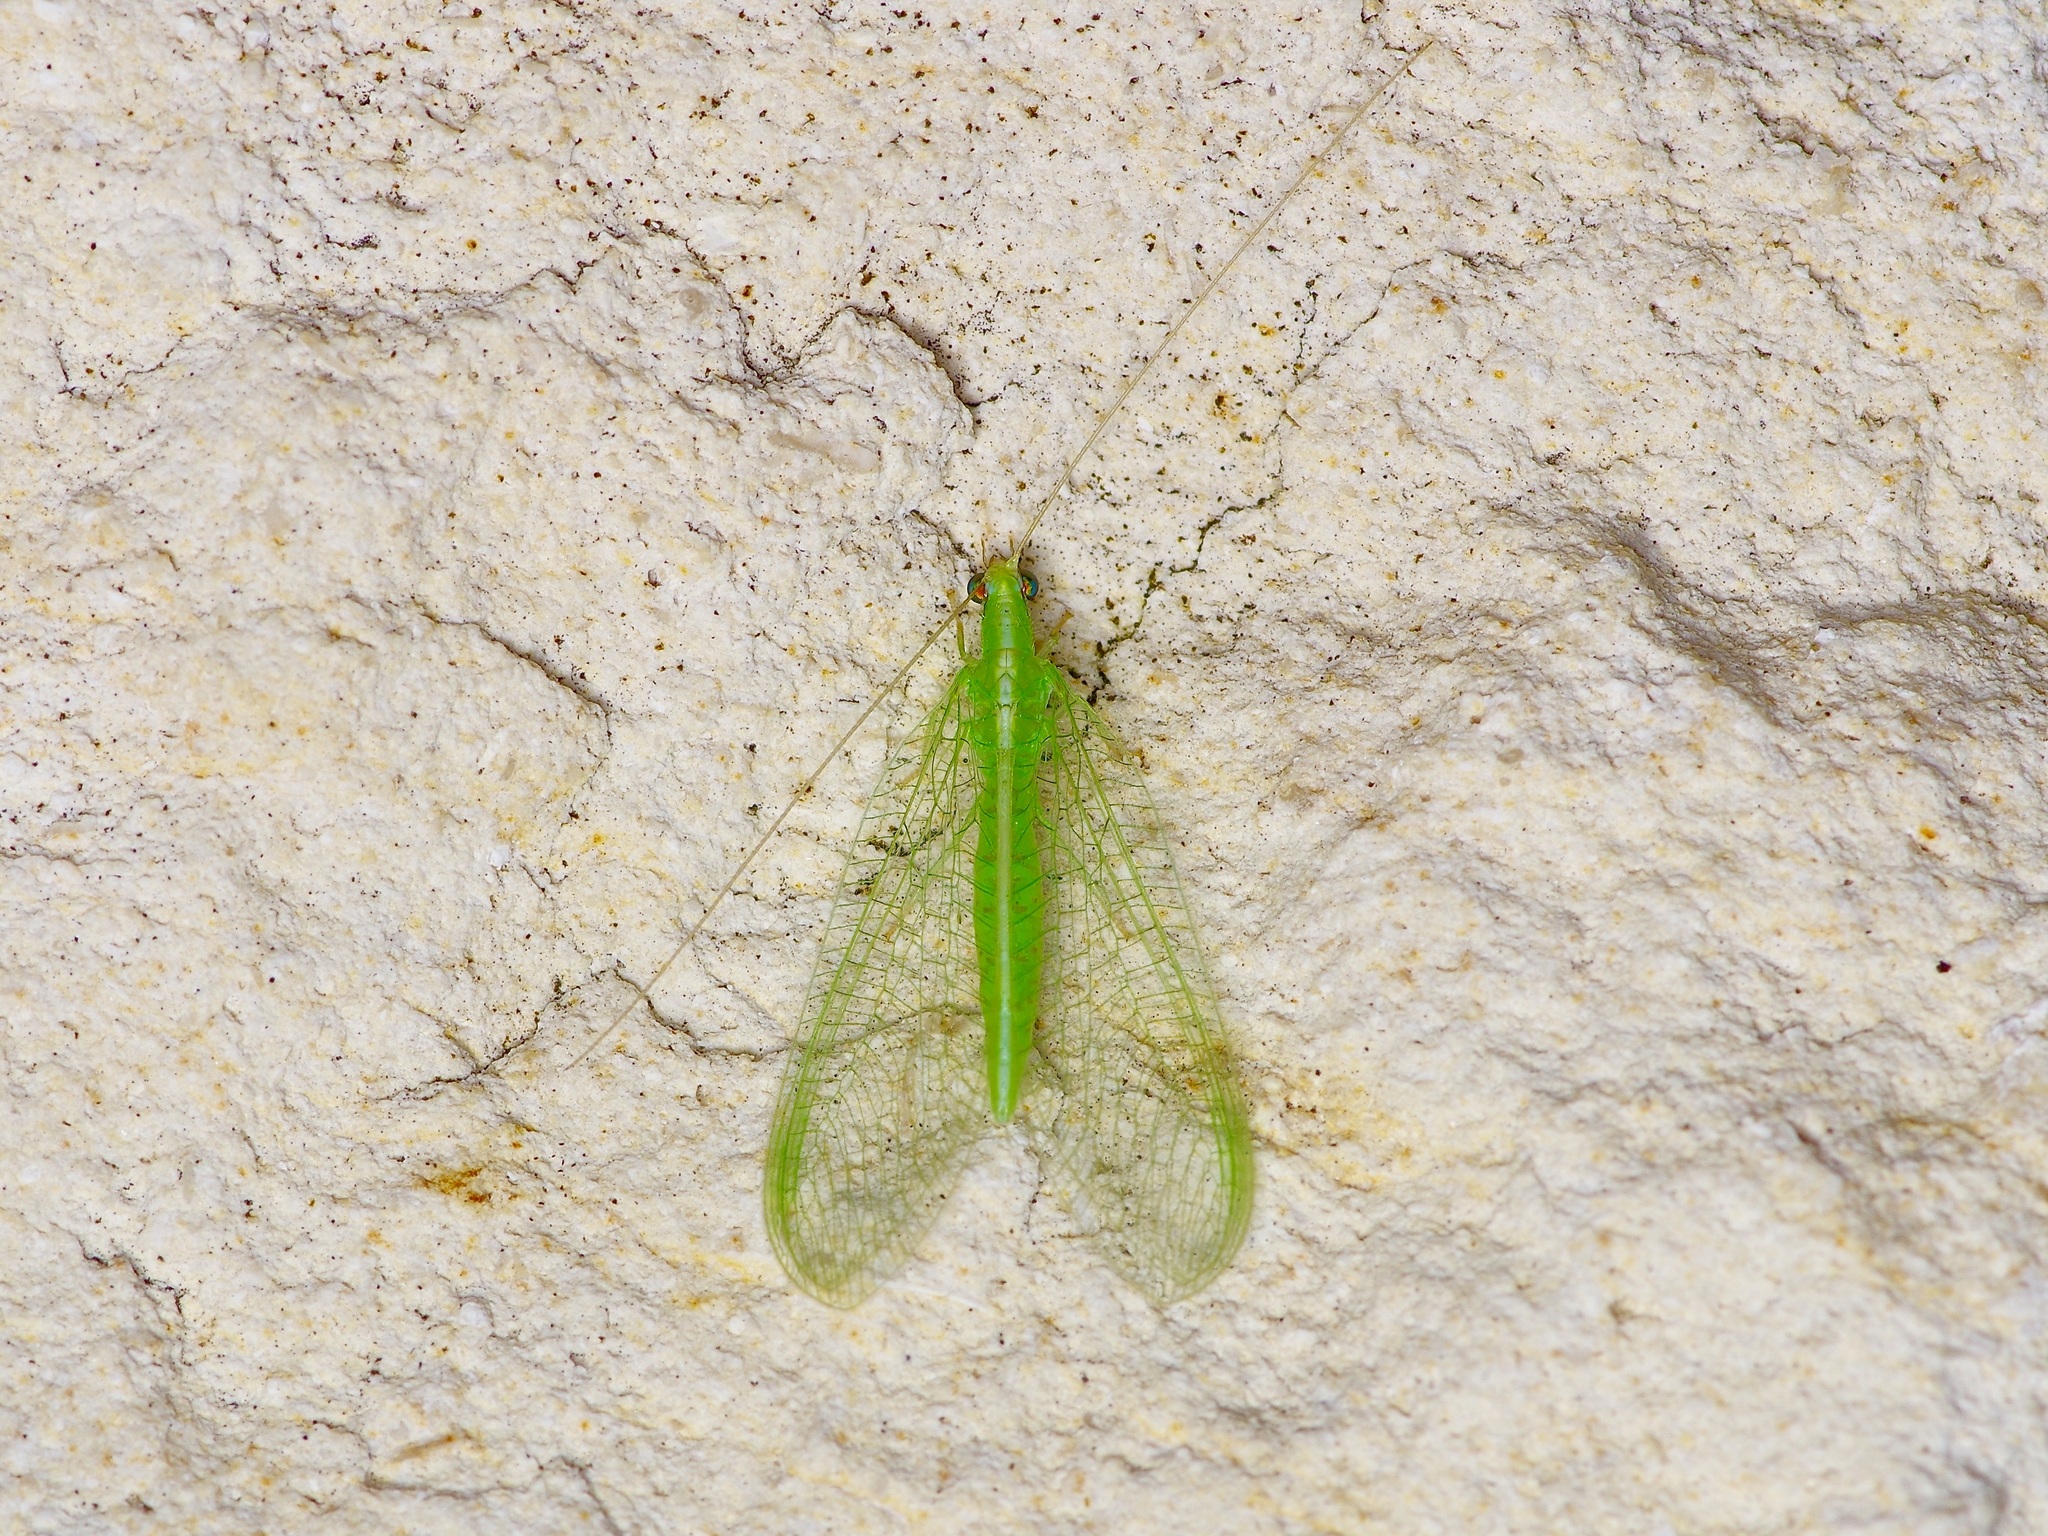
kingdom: Animalia
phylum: Arthropoda
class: Insecta
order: Neuroptera
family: Chrysopidae
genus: Chrysoperla
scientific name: Chrysoperla rufilabris
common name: Red-lipped green lacewing
